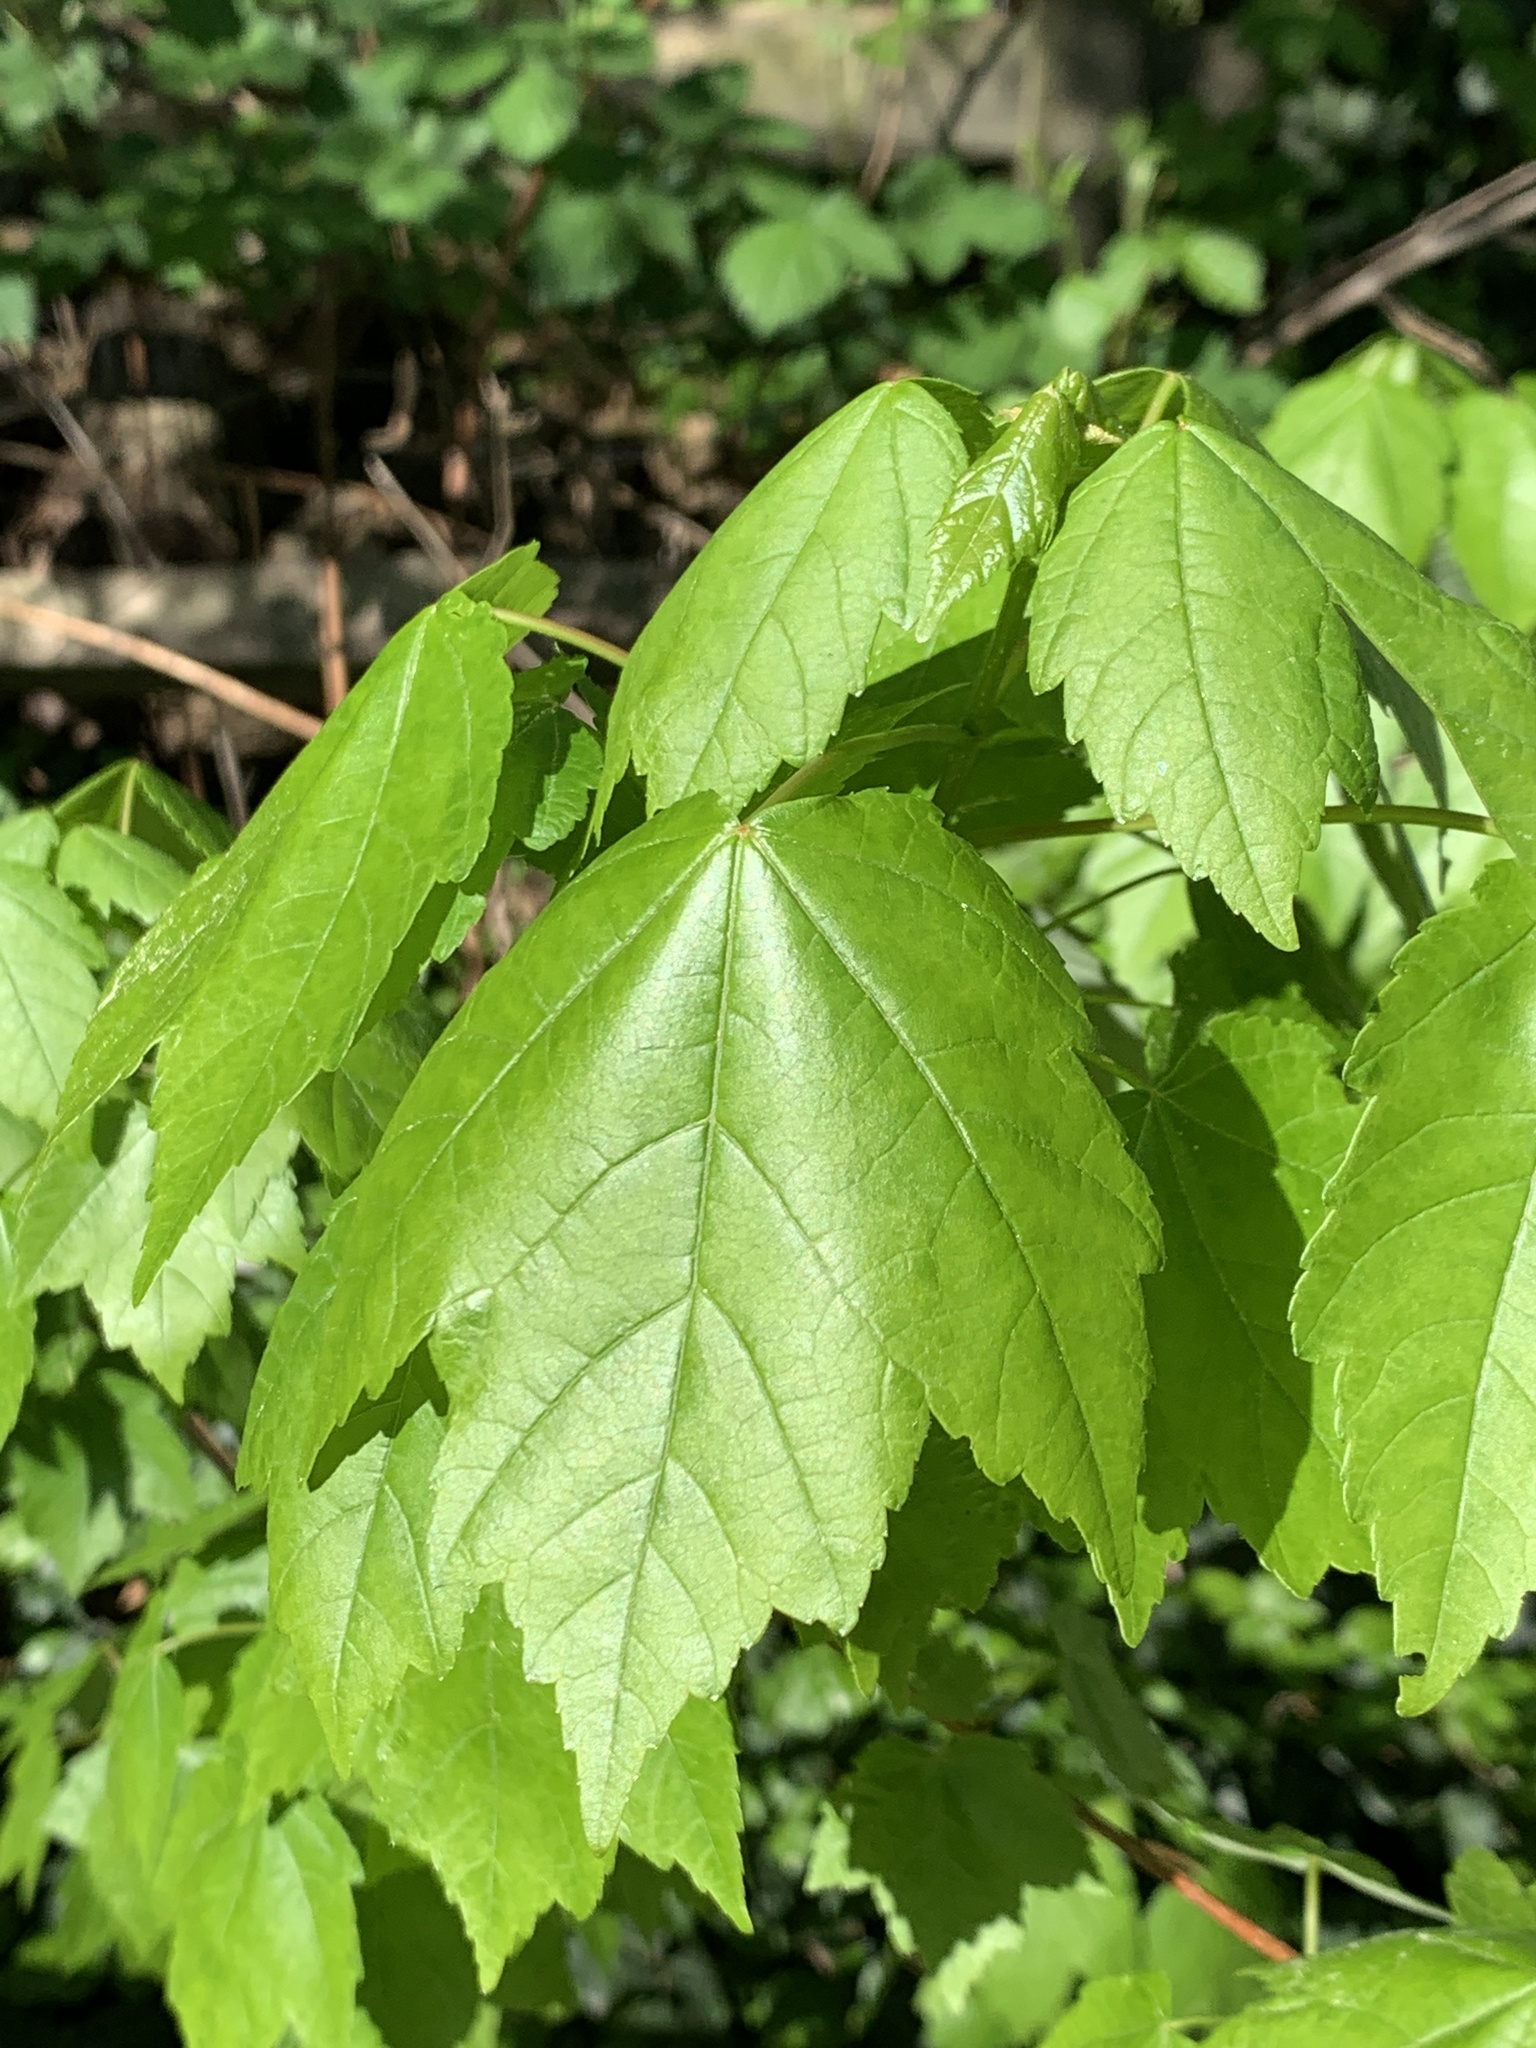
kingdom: Plantae
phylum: Tracheophyta
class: Magnoliopsida
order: Sapindales
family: Sapindaceae
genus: Acer
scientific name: Acer rubrum
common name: Red maple
